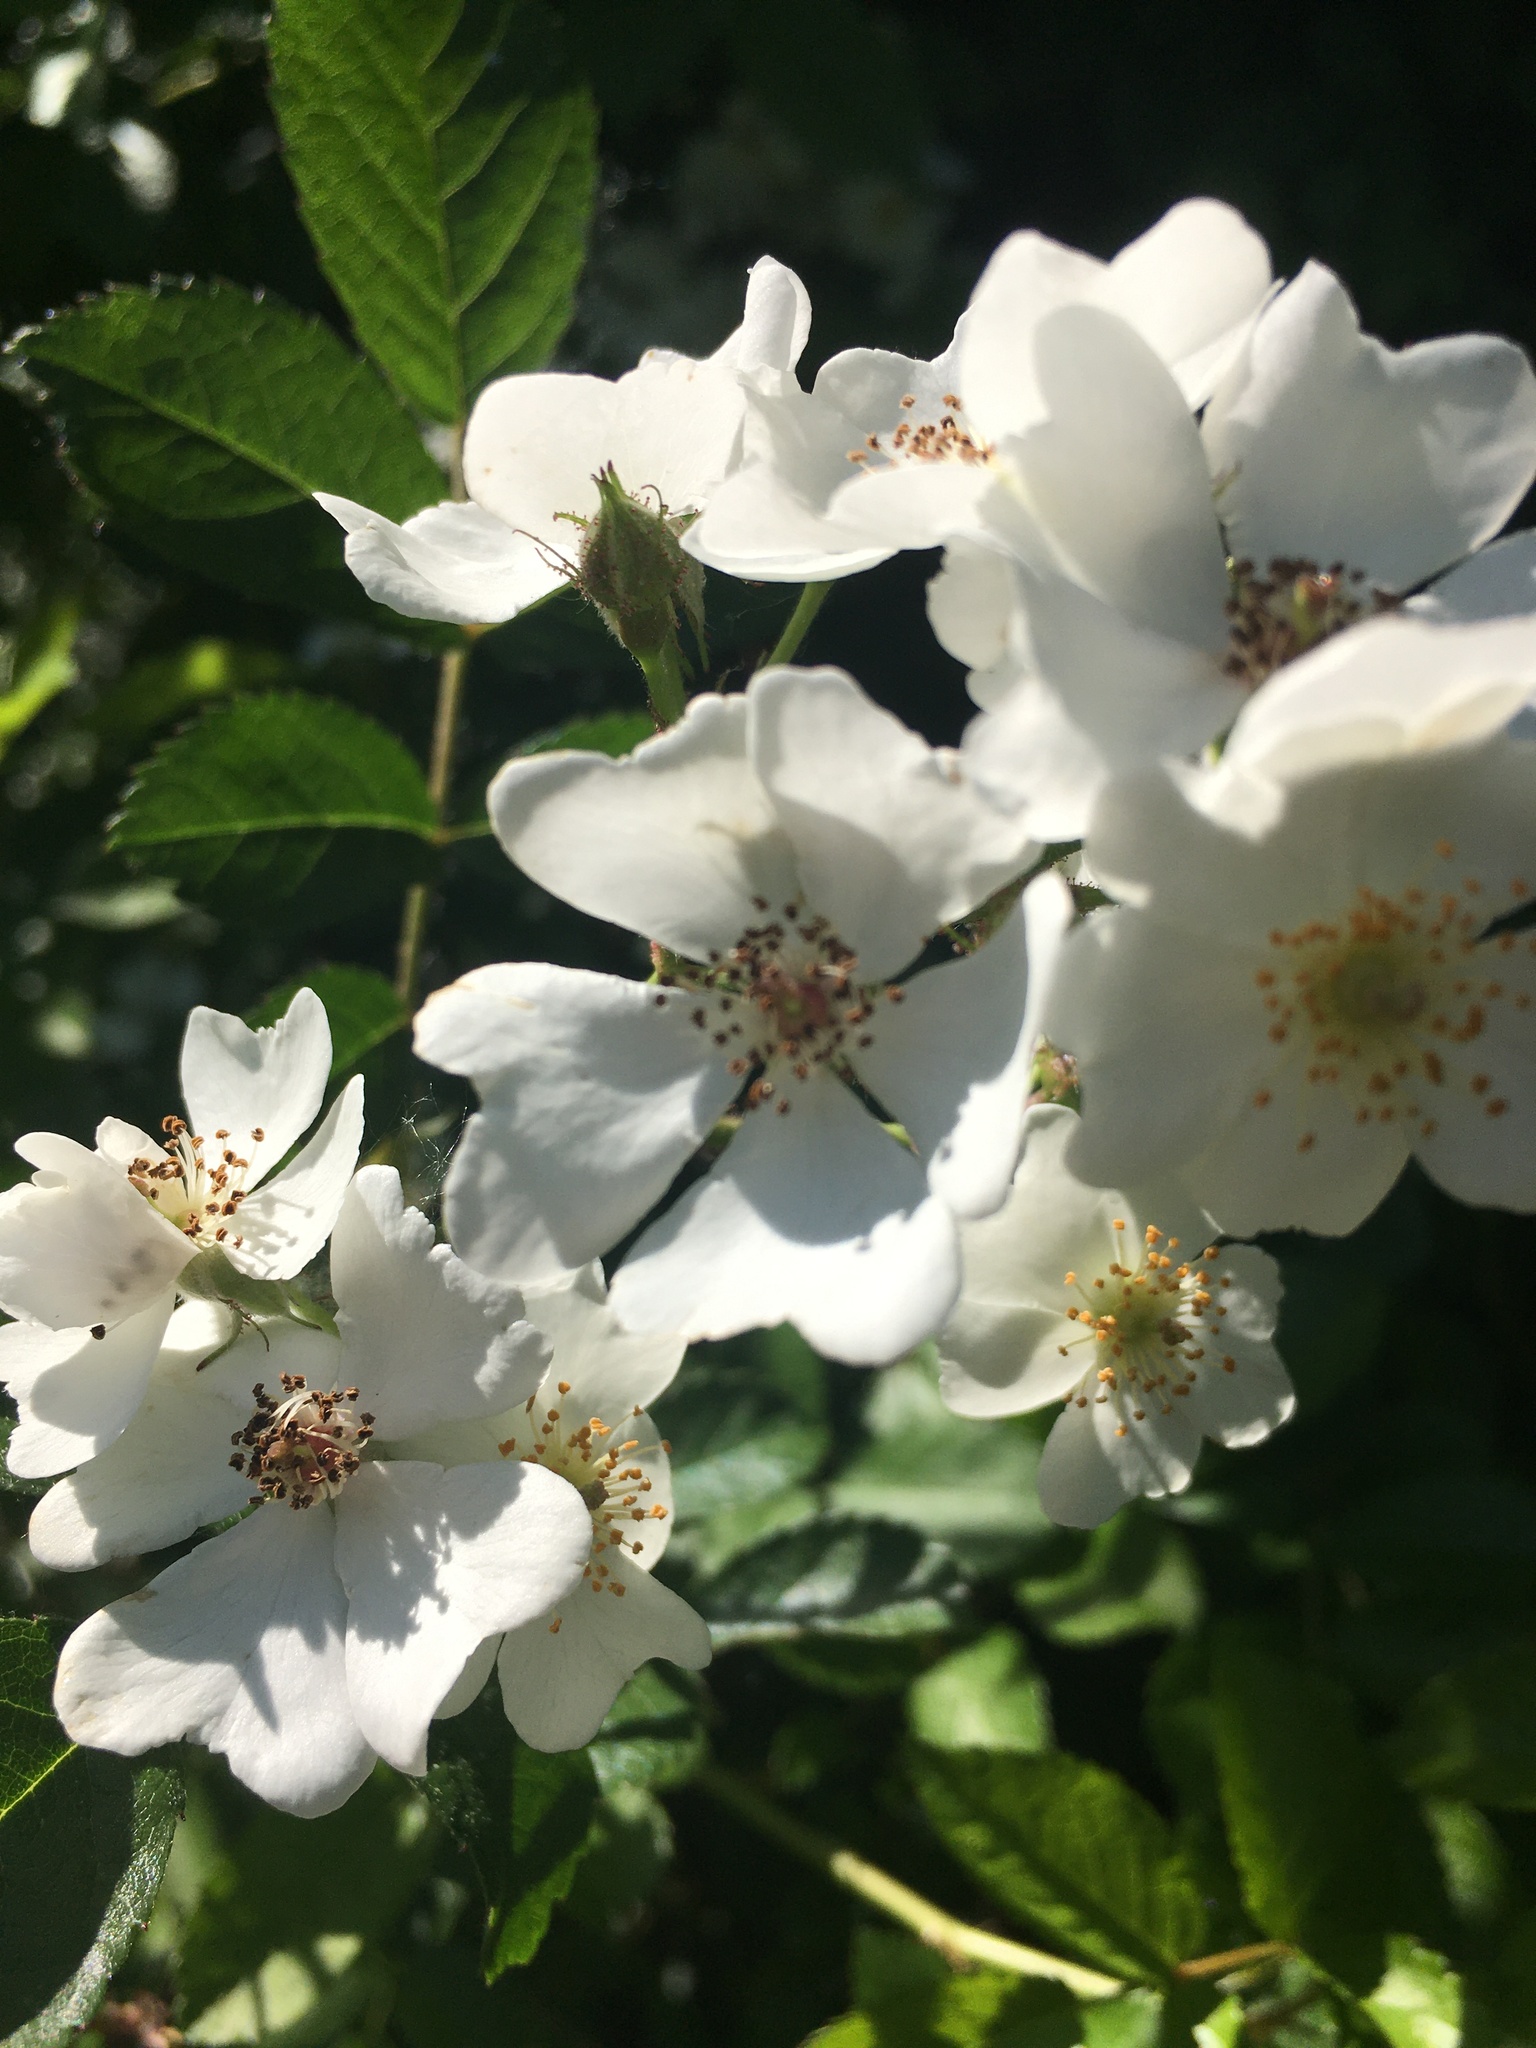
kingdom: Plantae
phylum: Tracheophyta
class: Magnoliopsida
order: Rosales
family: Rosaceae
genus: Rosa
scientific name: Rosa multiflora
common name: Multiflora rose
